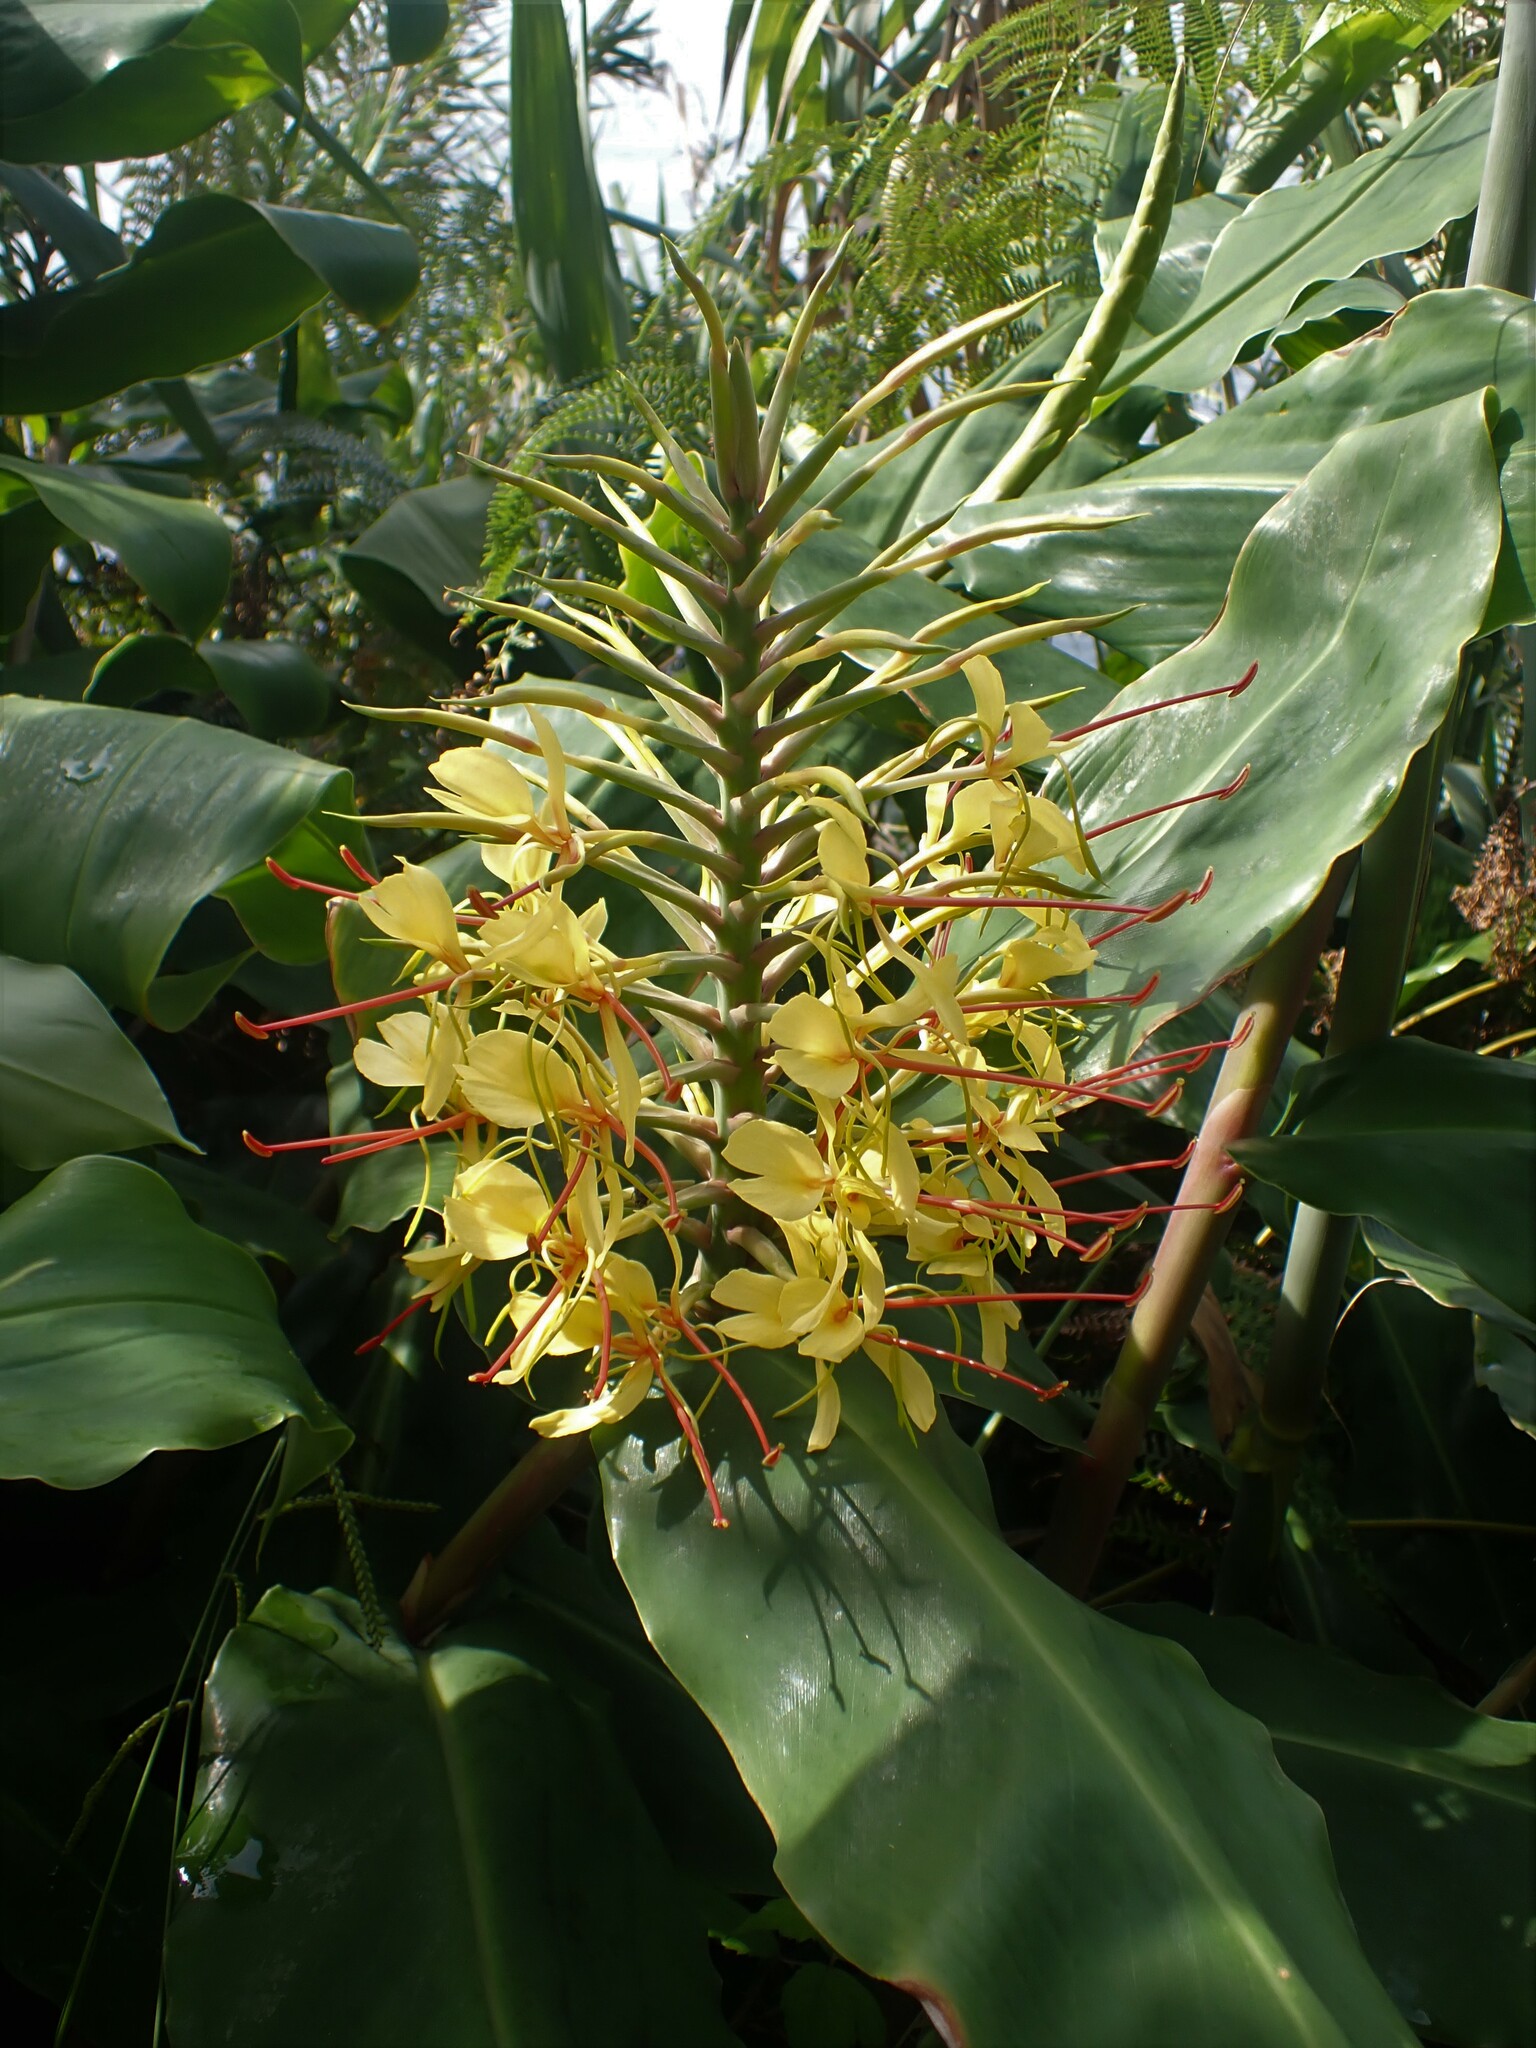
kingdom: Plantae
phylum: Tracheophyta
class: Liliopsida
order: Zingiberales
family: Zingiberaceae
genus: Hedychium
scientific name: Hedychium gardnerianum
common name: Himalayan ginger
